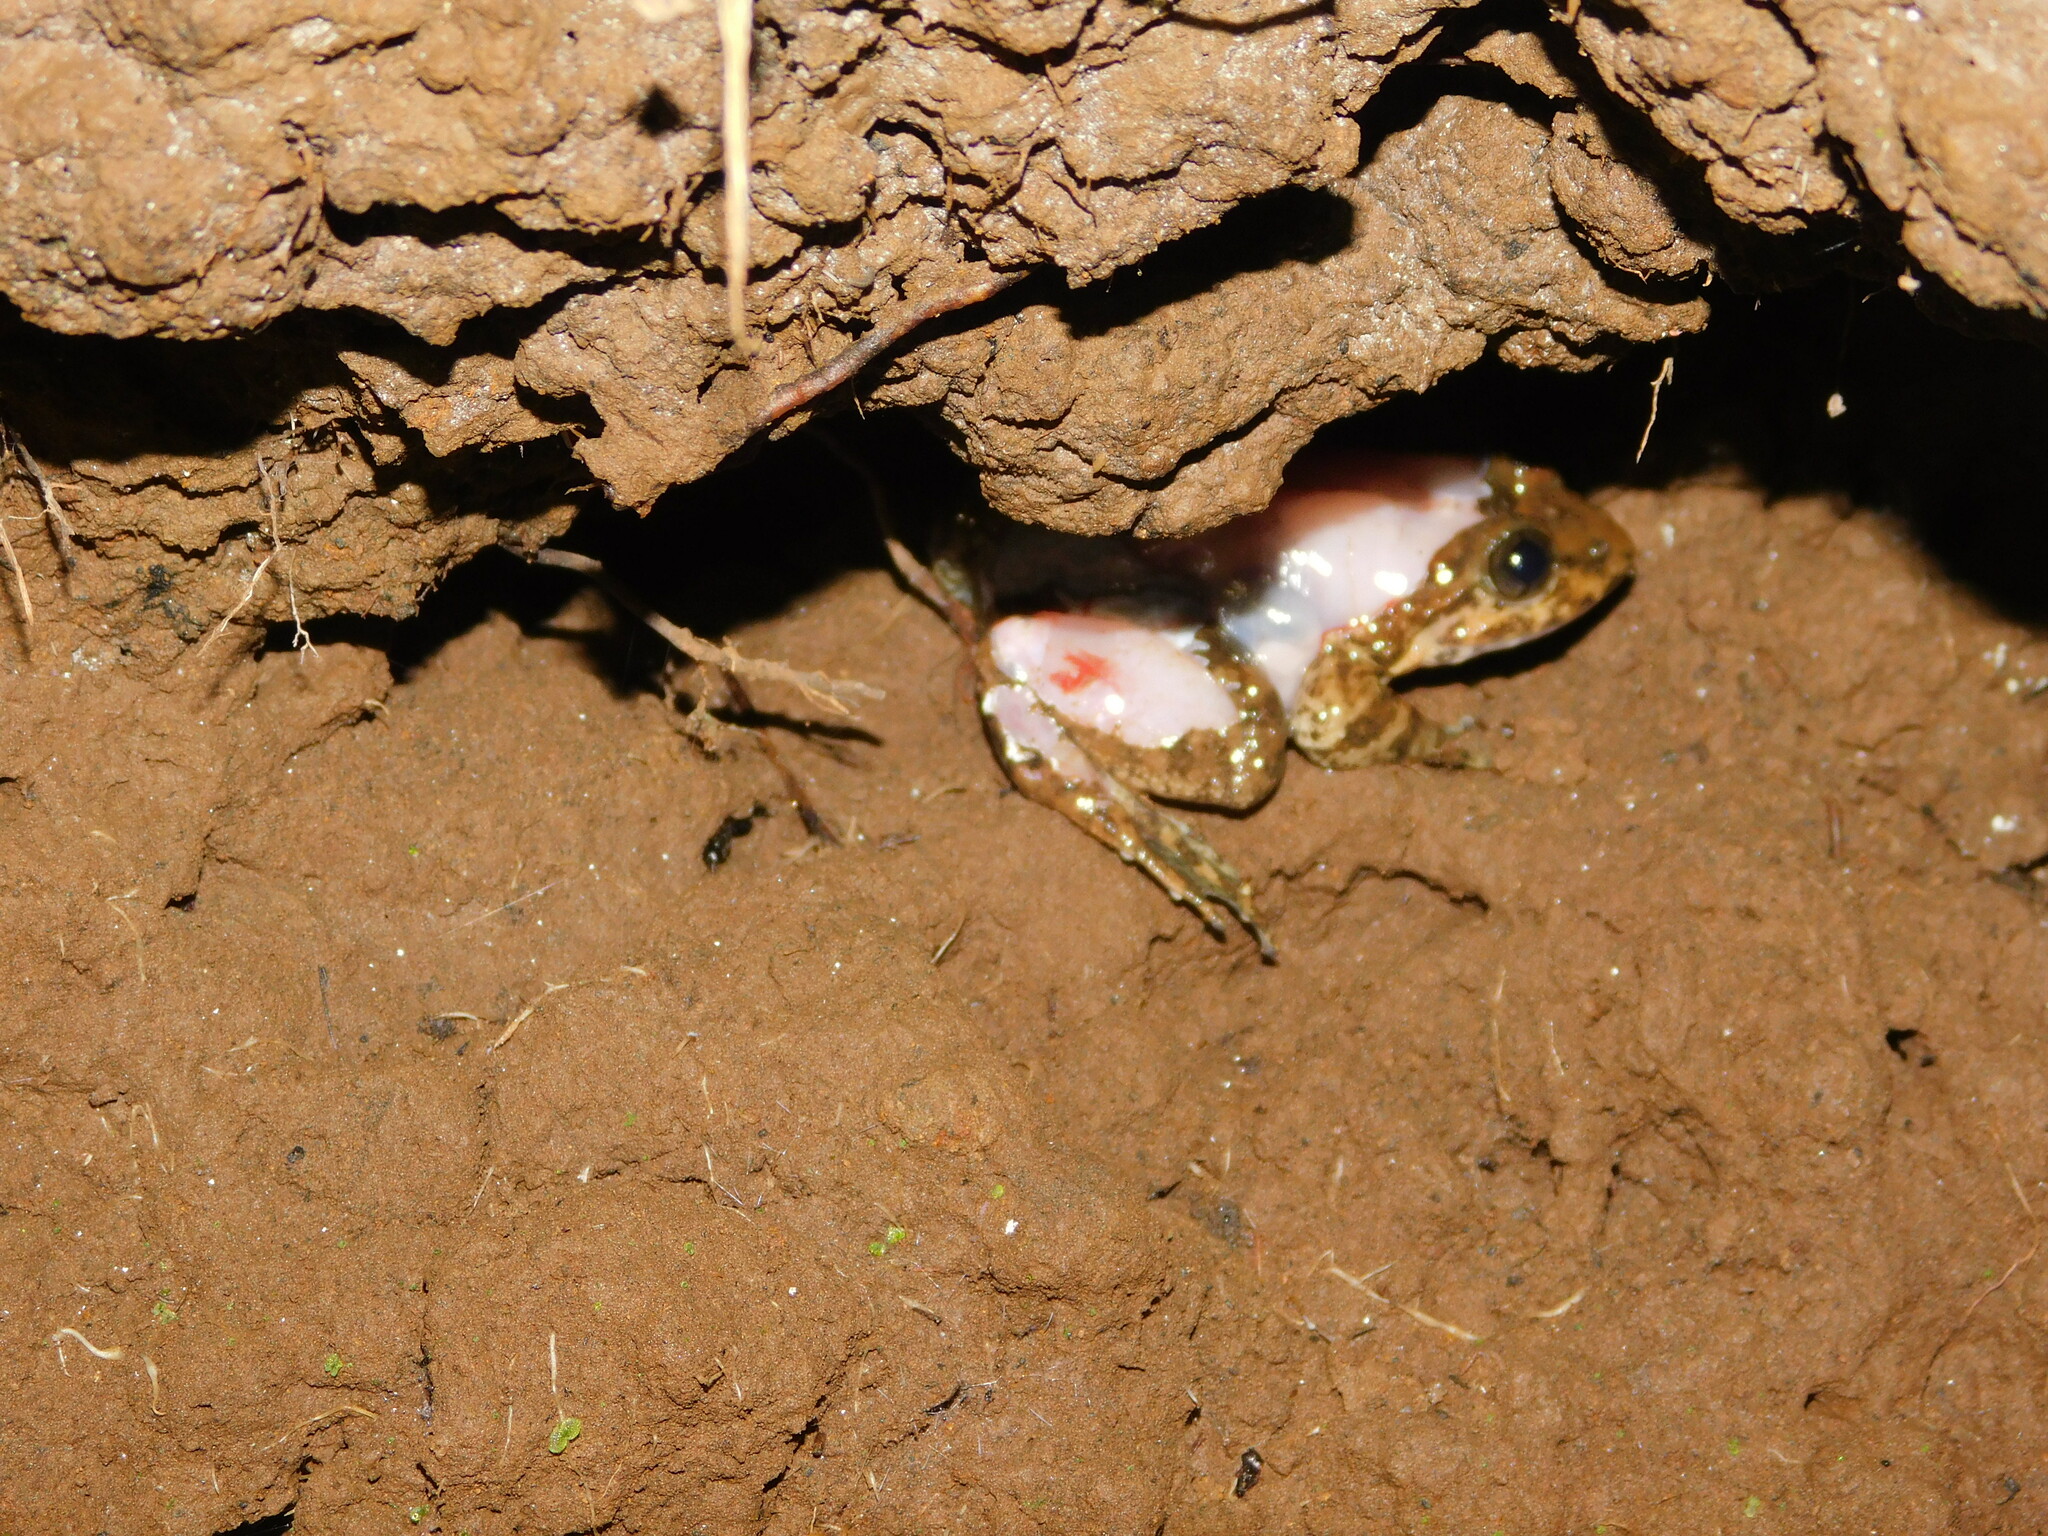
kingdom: Animalia
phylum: Chordata
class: Amphibia
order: Anura
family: Dicroglossidae
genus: Limnonectes
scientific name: Limnonectes kuhlii
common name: Kuhl’s stream frog/large-headed frog
